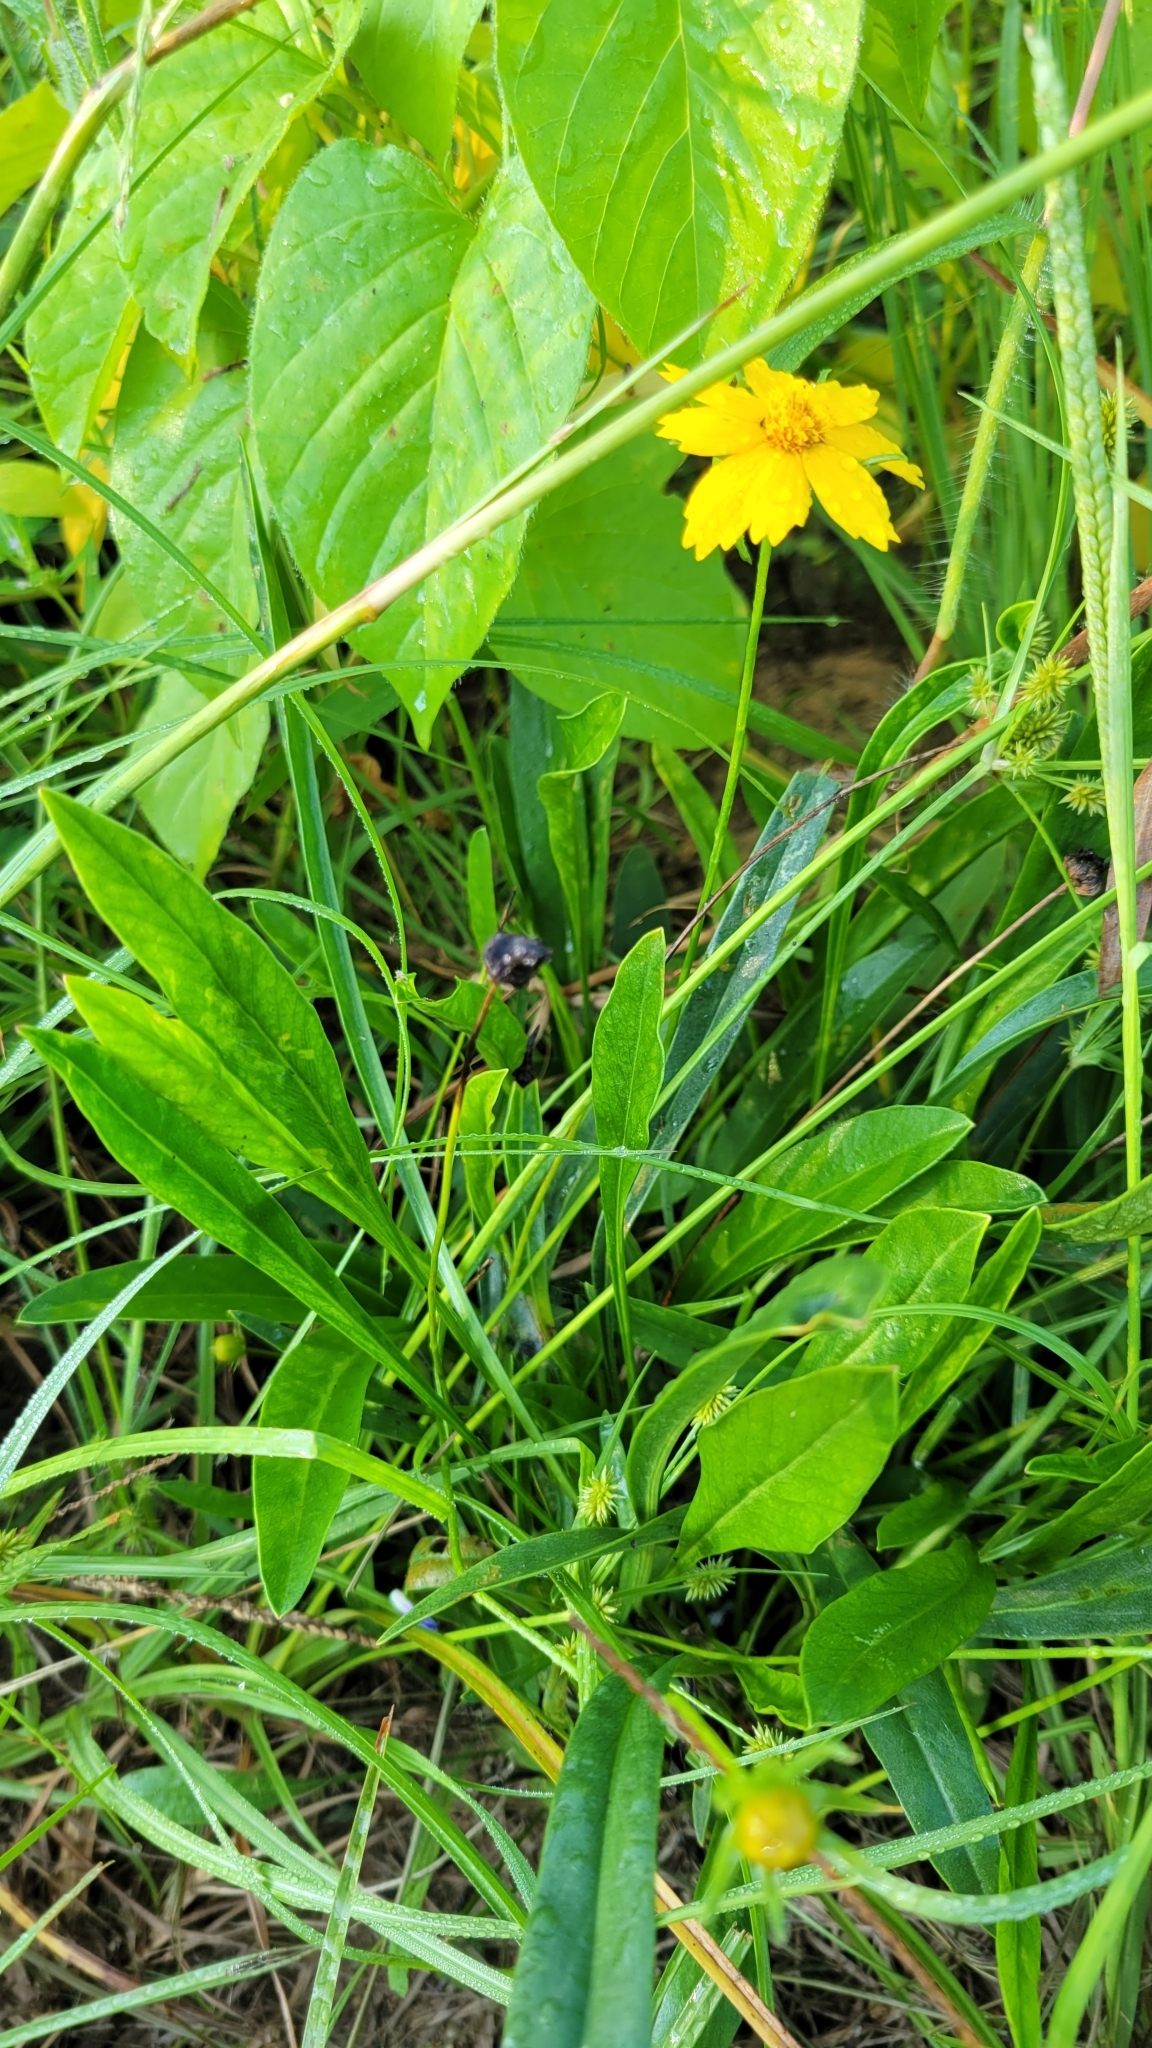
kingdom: Plantae
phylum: Tracheophyta
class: Magnoliopsida
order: Asterales
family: Asteraceae
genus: Coreopsis
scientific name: Coreopsis lanceolata
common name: Garden coreopsis
